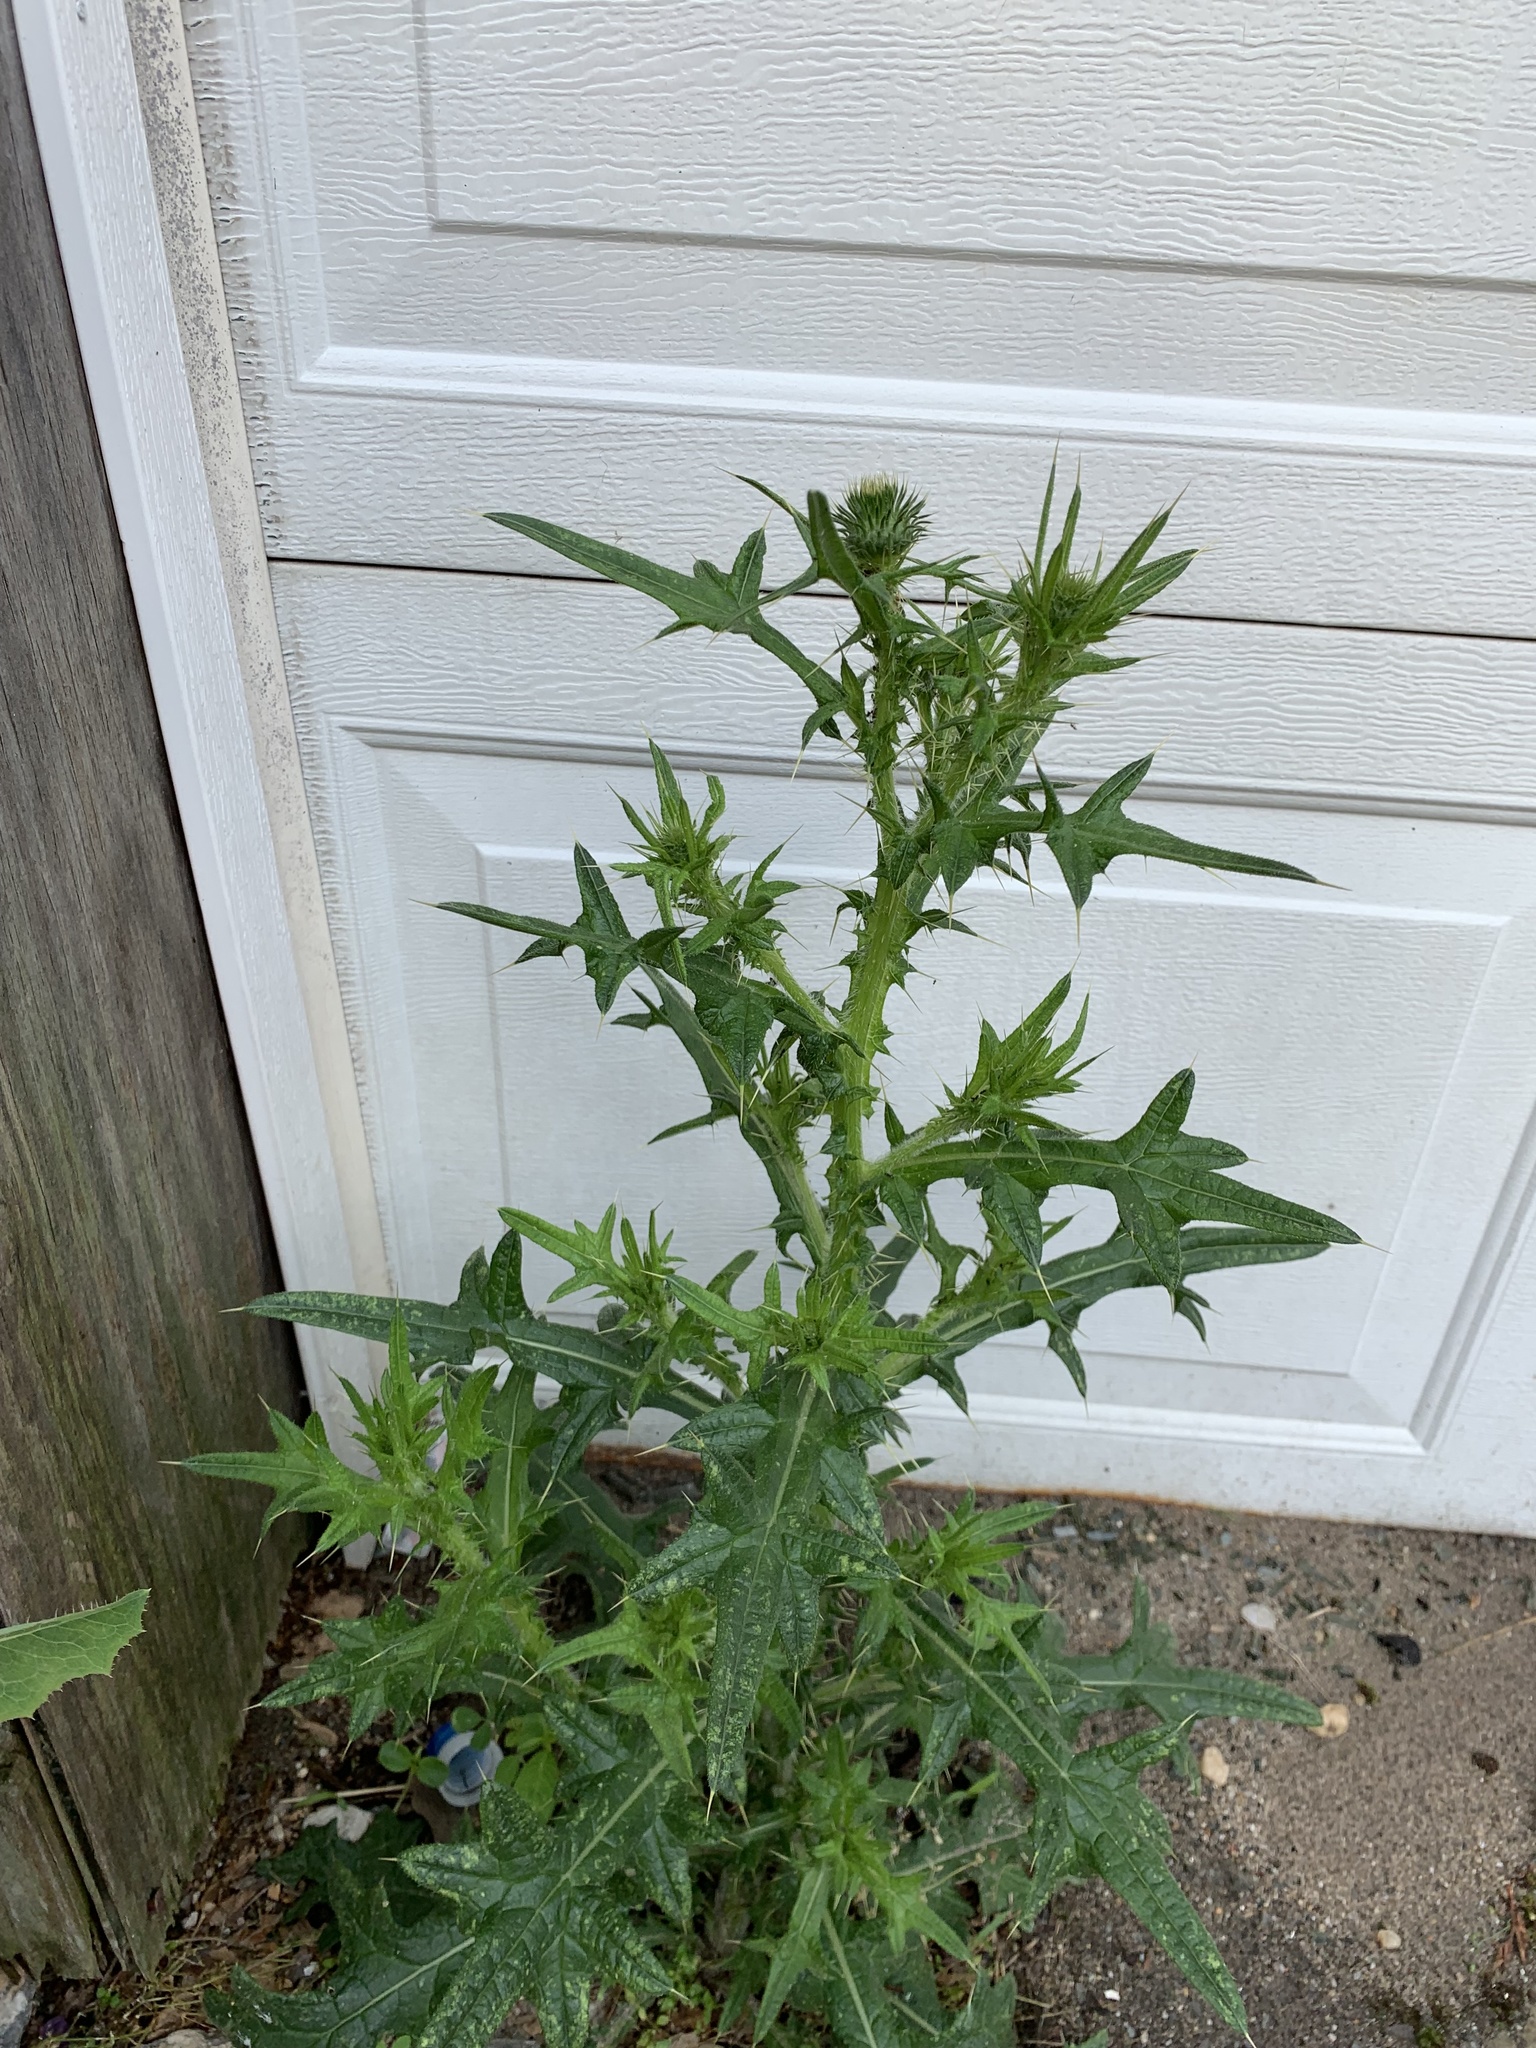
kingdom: Plantae
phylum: Tracheophyta
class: Magnoliopsida
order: Asterales
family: Asteraceae
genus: Cirsium
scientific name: Cirsium vulgare
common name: Bull thistle
